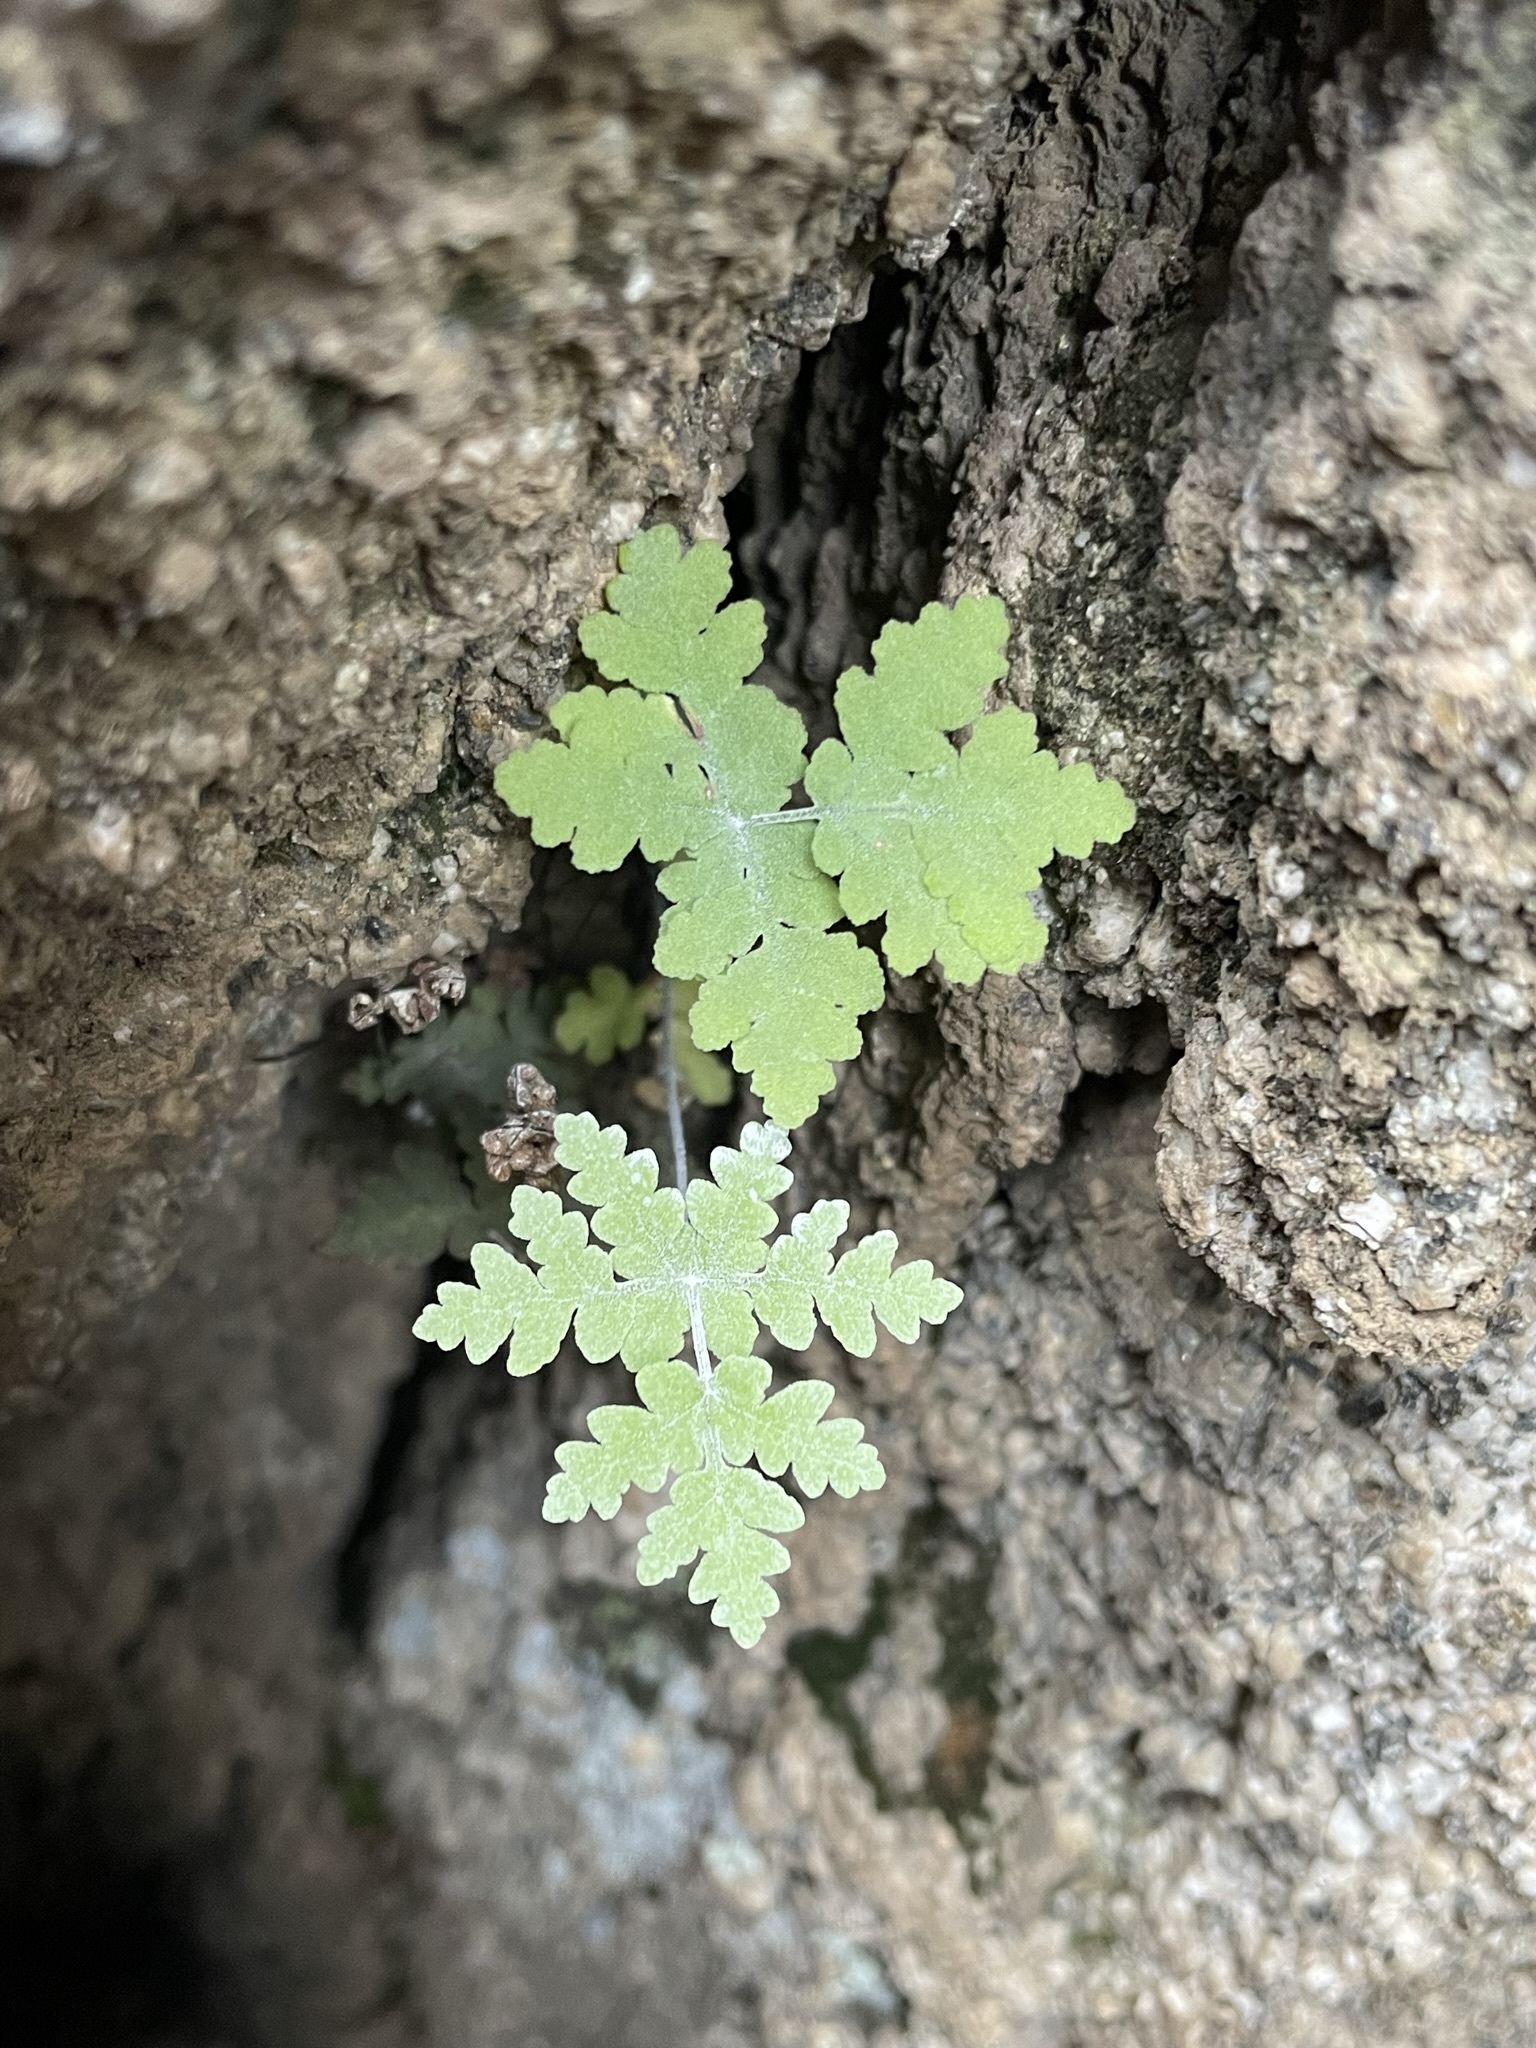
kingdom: Plantae
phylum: Tracheophyta
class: Polypodiopsida
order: Polypodiales
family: Pteridaceae
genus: Pentagramma
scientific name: Pentagramma pallida
